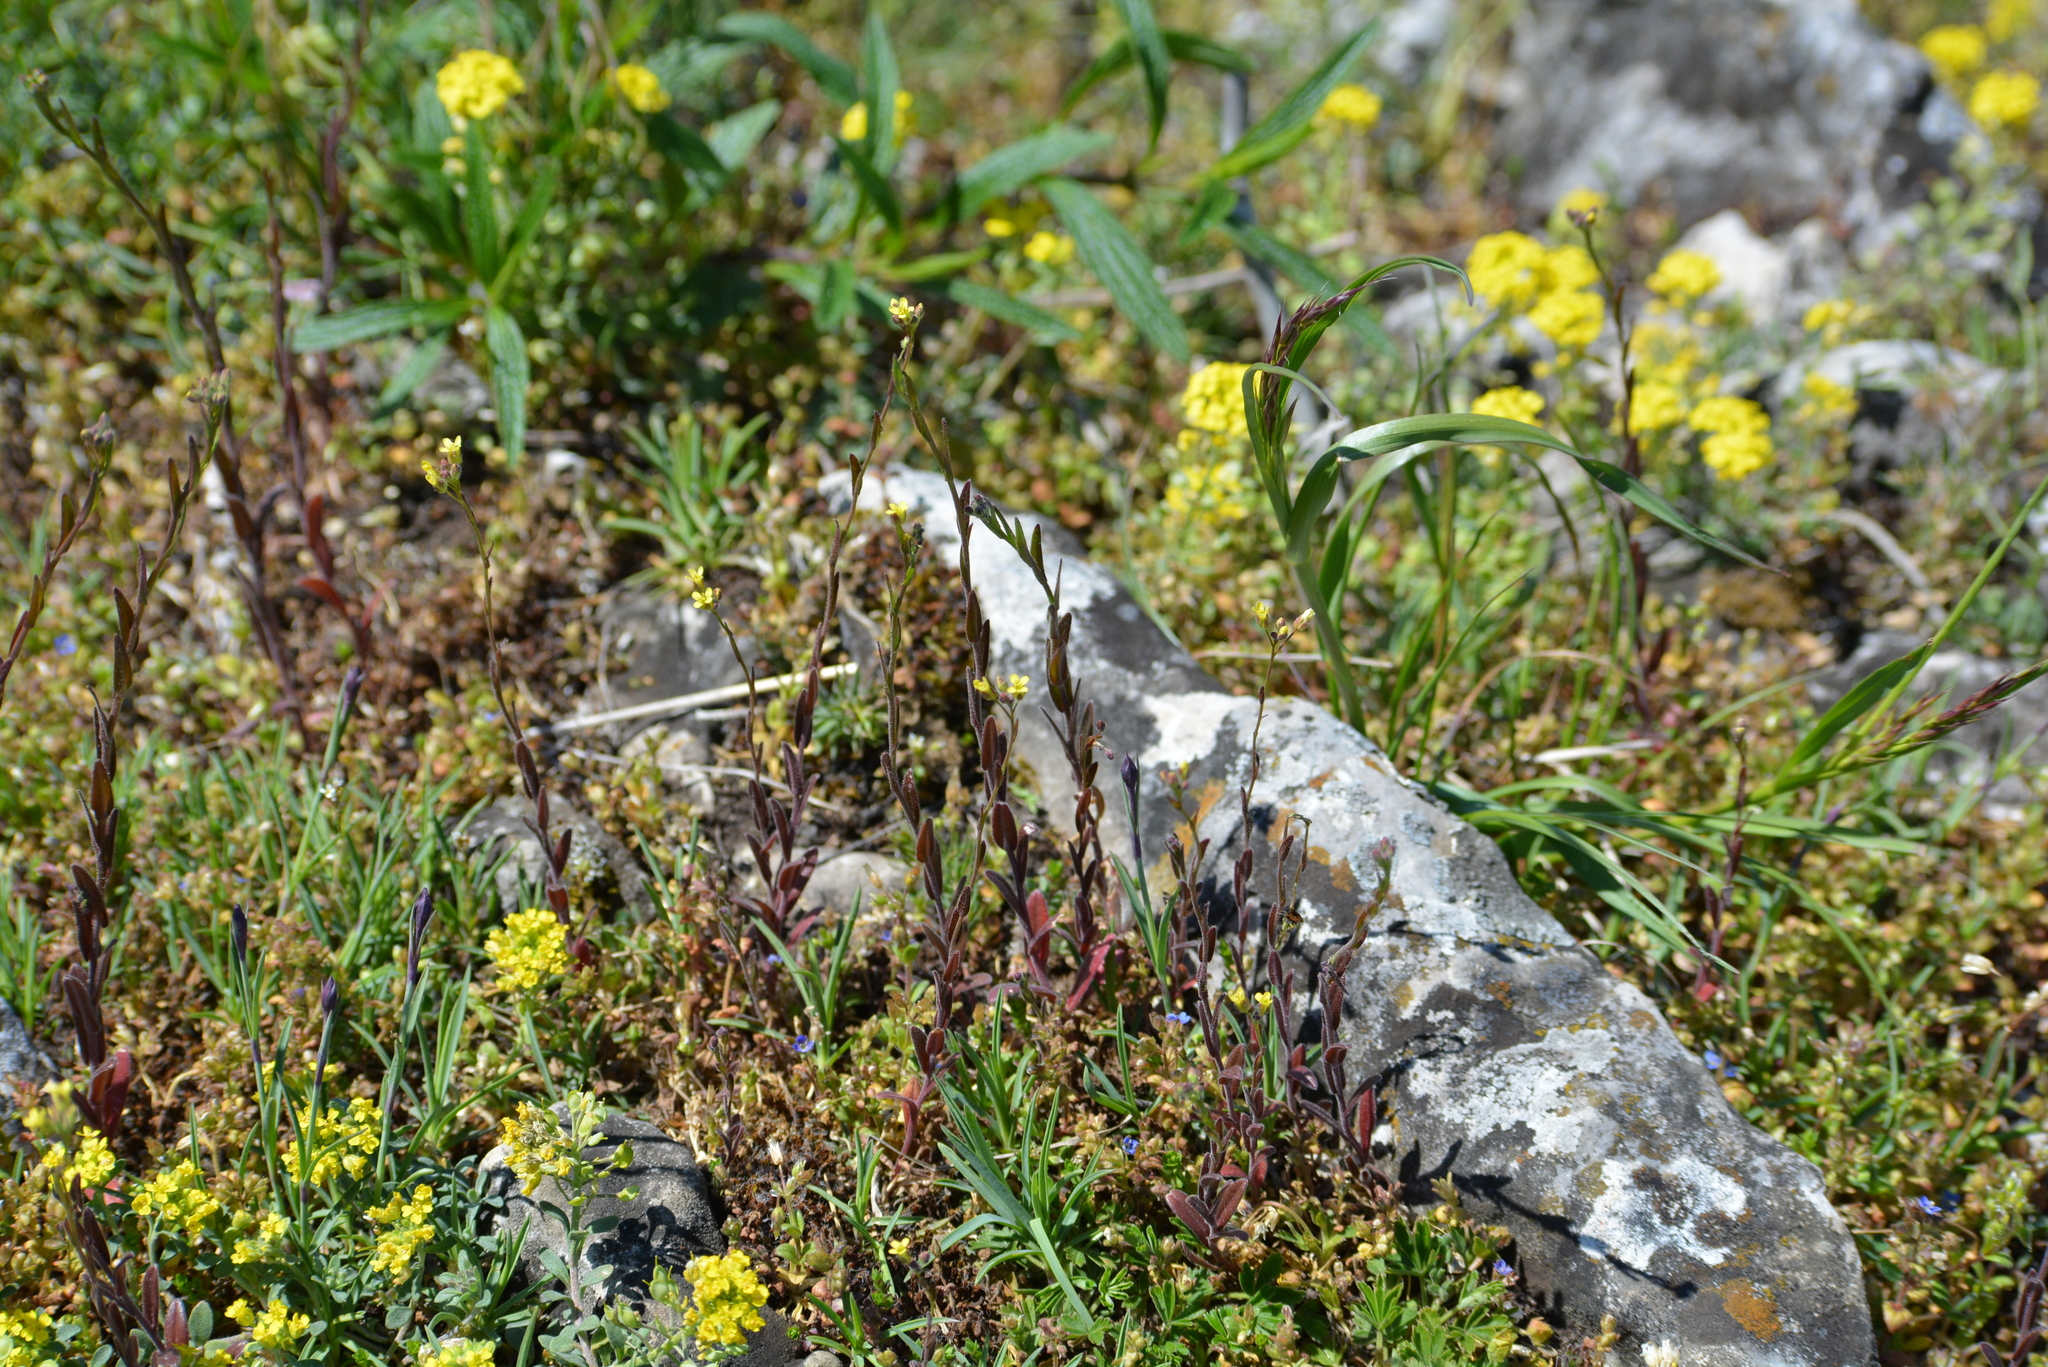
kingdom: Plantae
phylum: Tracheophyta
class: Magnoliopsida
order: Brassicales
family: Brassicaceae
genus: Camelina
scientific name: Camelina microcarpa
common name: Lesser gold-of-pleasure
